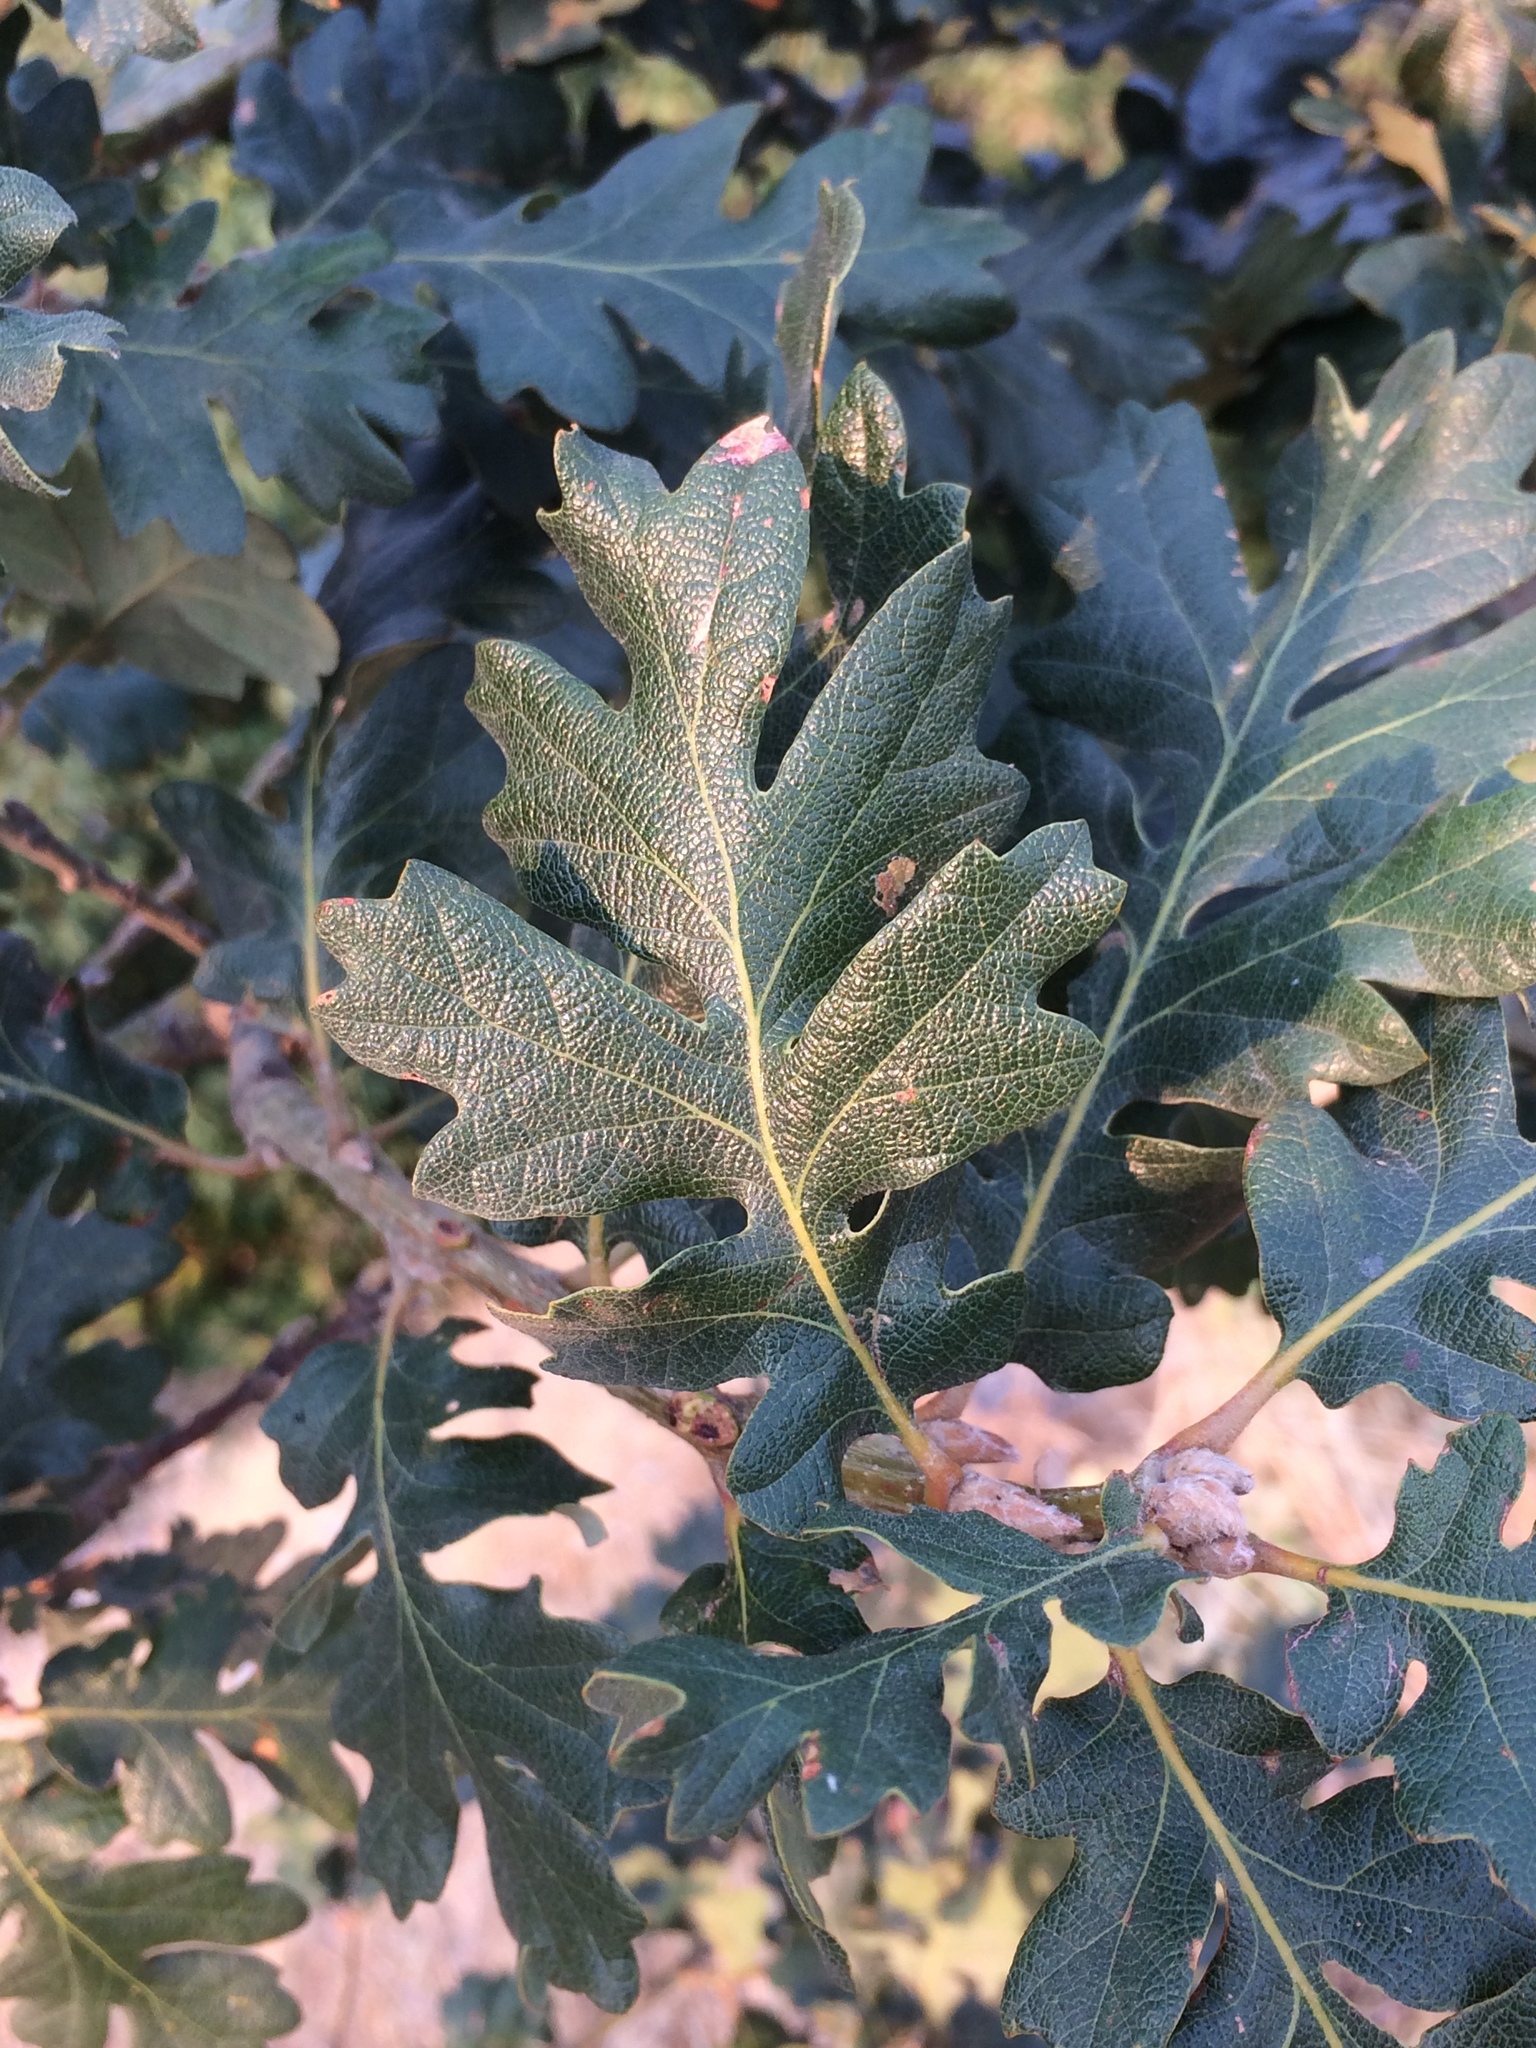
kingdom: Plantae
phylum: Tracheophyta
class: Magnoliopsida
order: Fagales
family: Fagaceae
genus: Quercus
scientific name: Quercus garryana
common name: Garry oak
